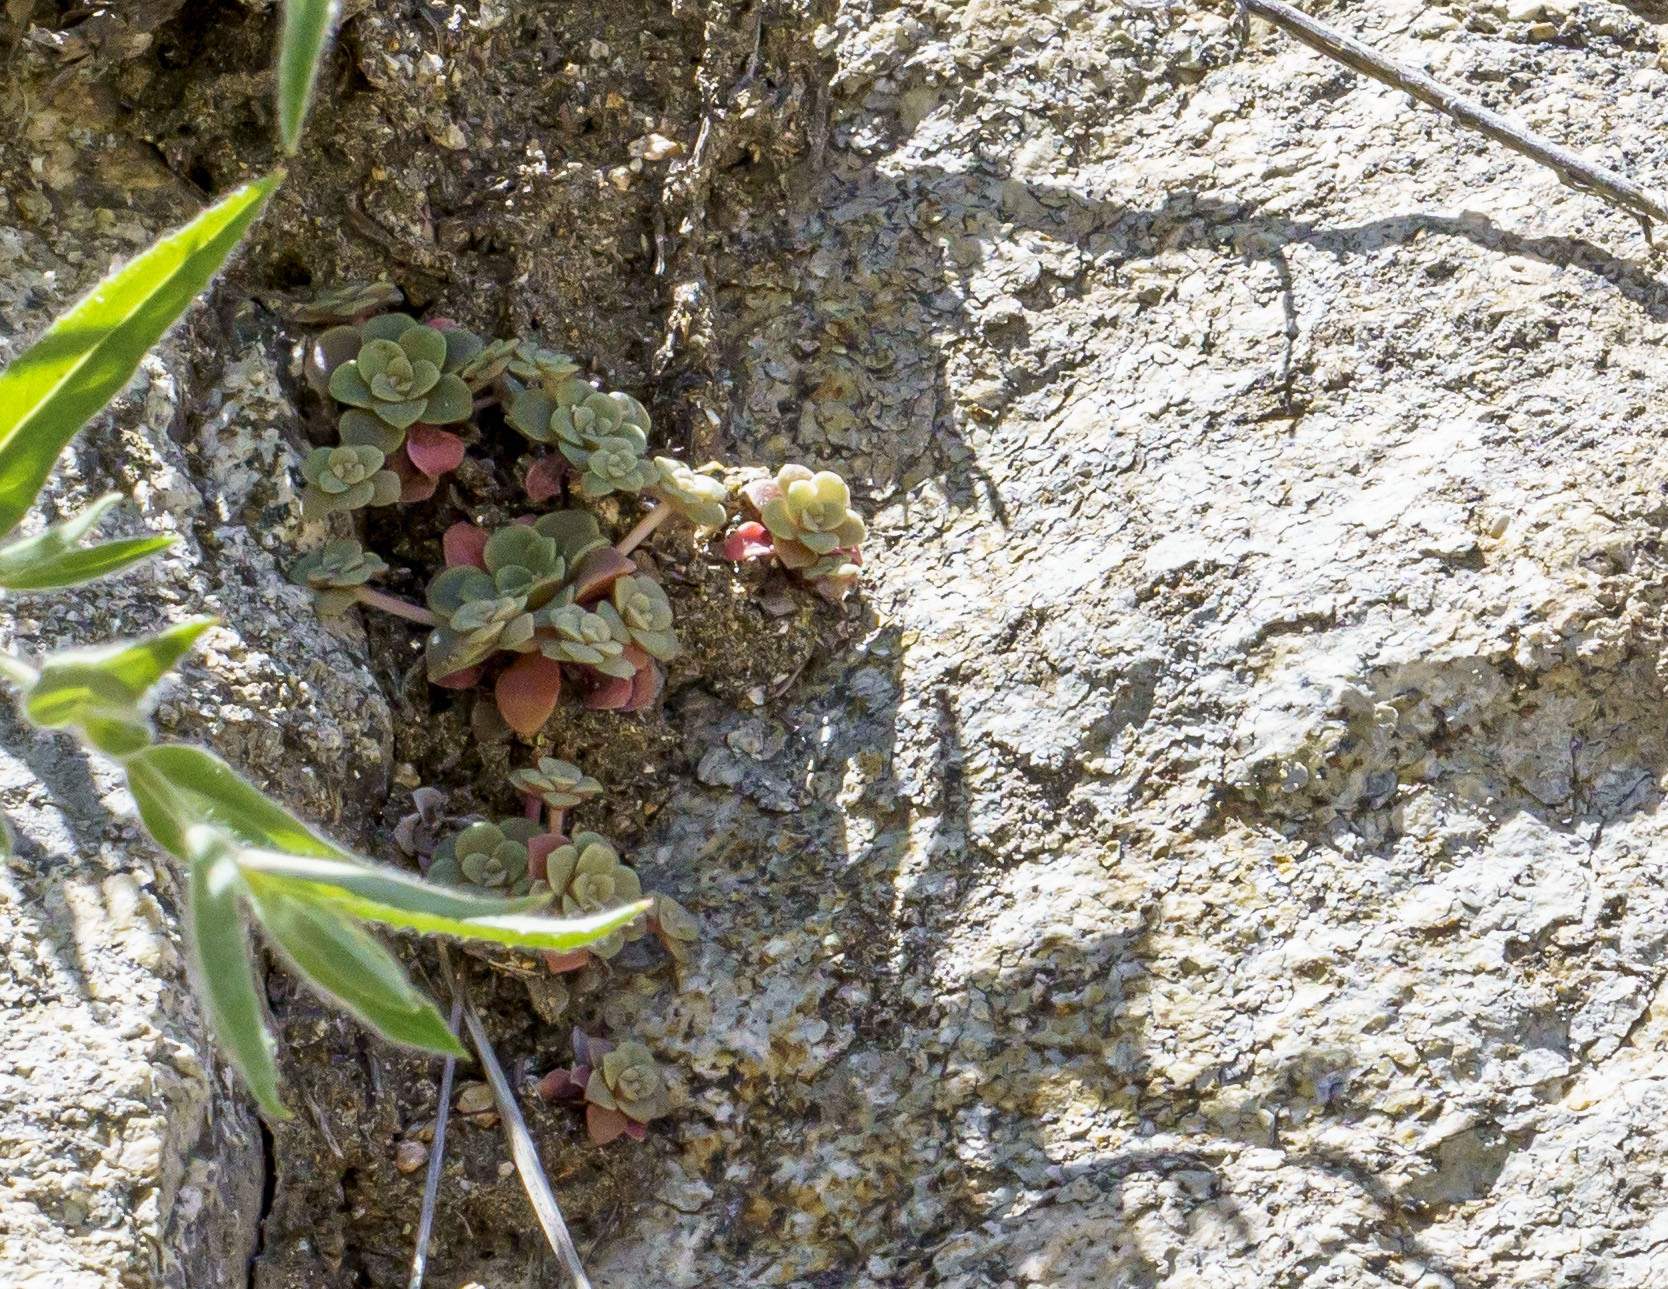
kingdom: Plantae
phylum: Tracheophyta
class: Magnoliopsida
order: Saxifragales
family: Crassulaceae
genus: Sedum
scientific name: Sedum spathulifolium
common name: Colorado stonecrop
